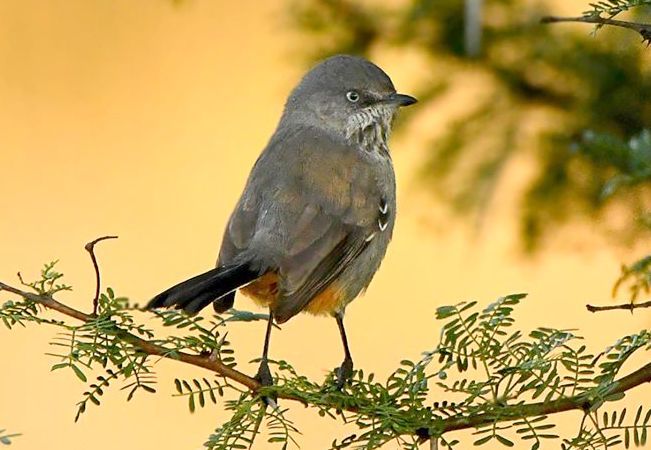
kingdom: Animalia
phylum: Chordata
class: Aves
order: Passeriformes
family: Sylviidae
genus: Curruca
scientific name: Curruca subcoerulea
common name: Chestnut-vented warbler
